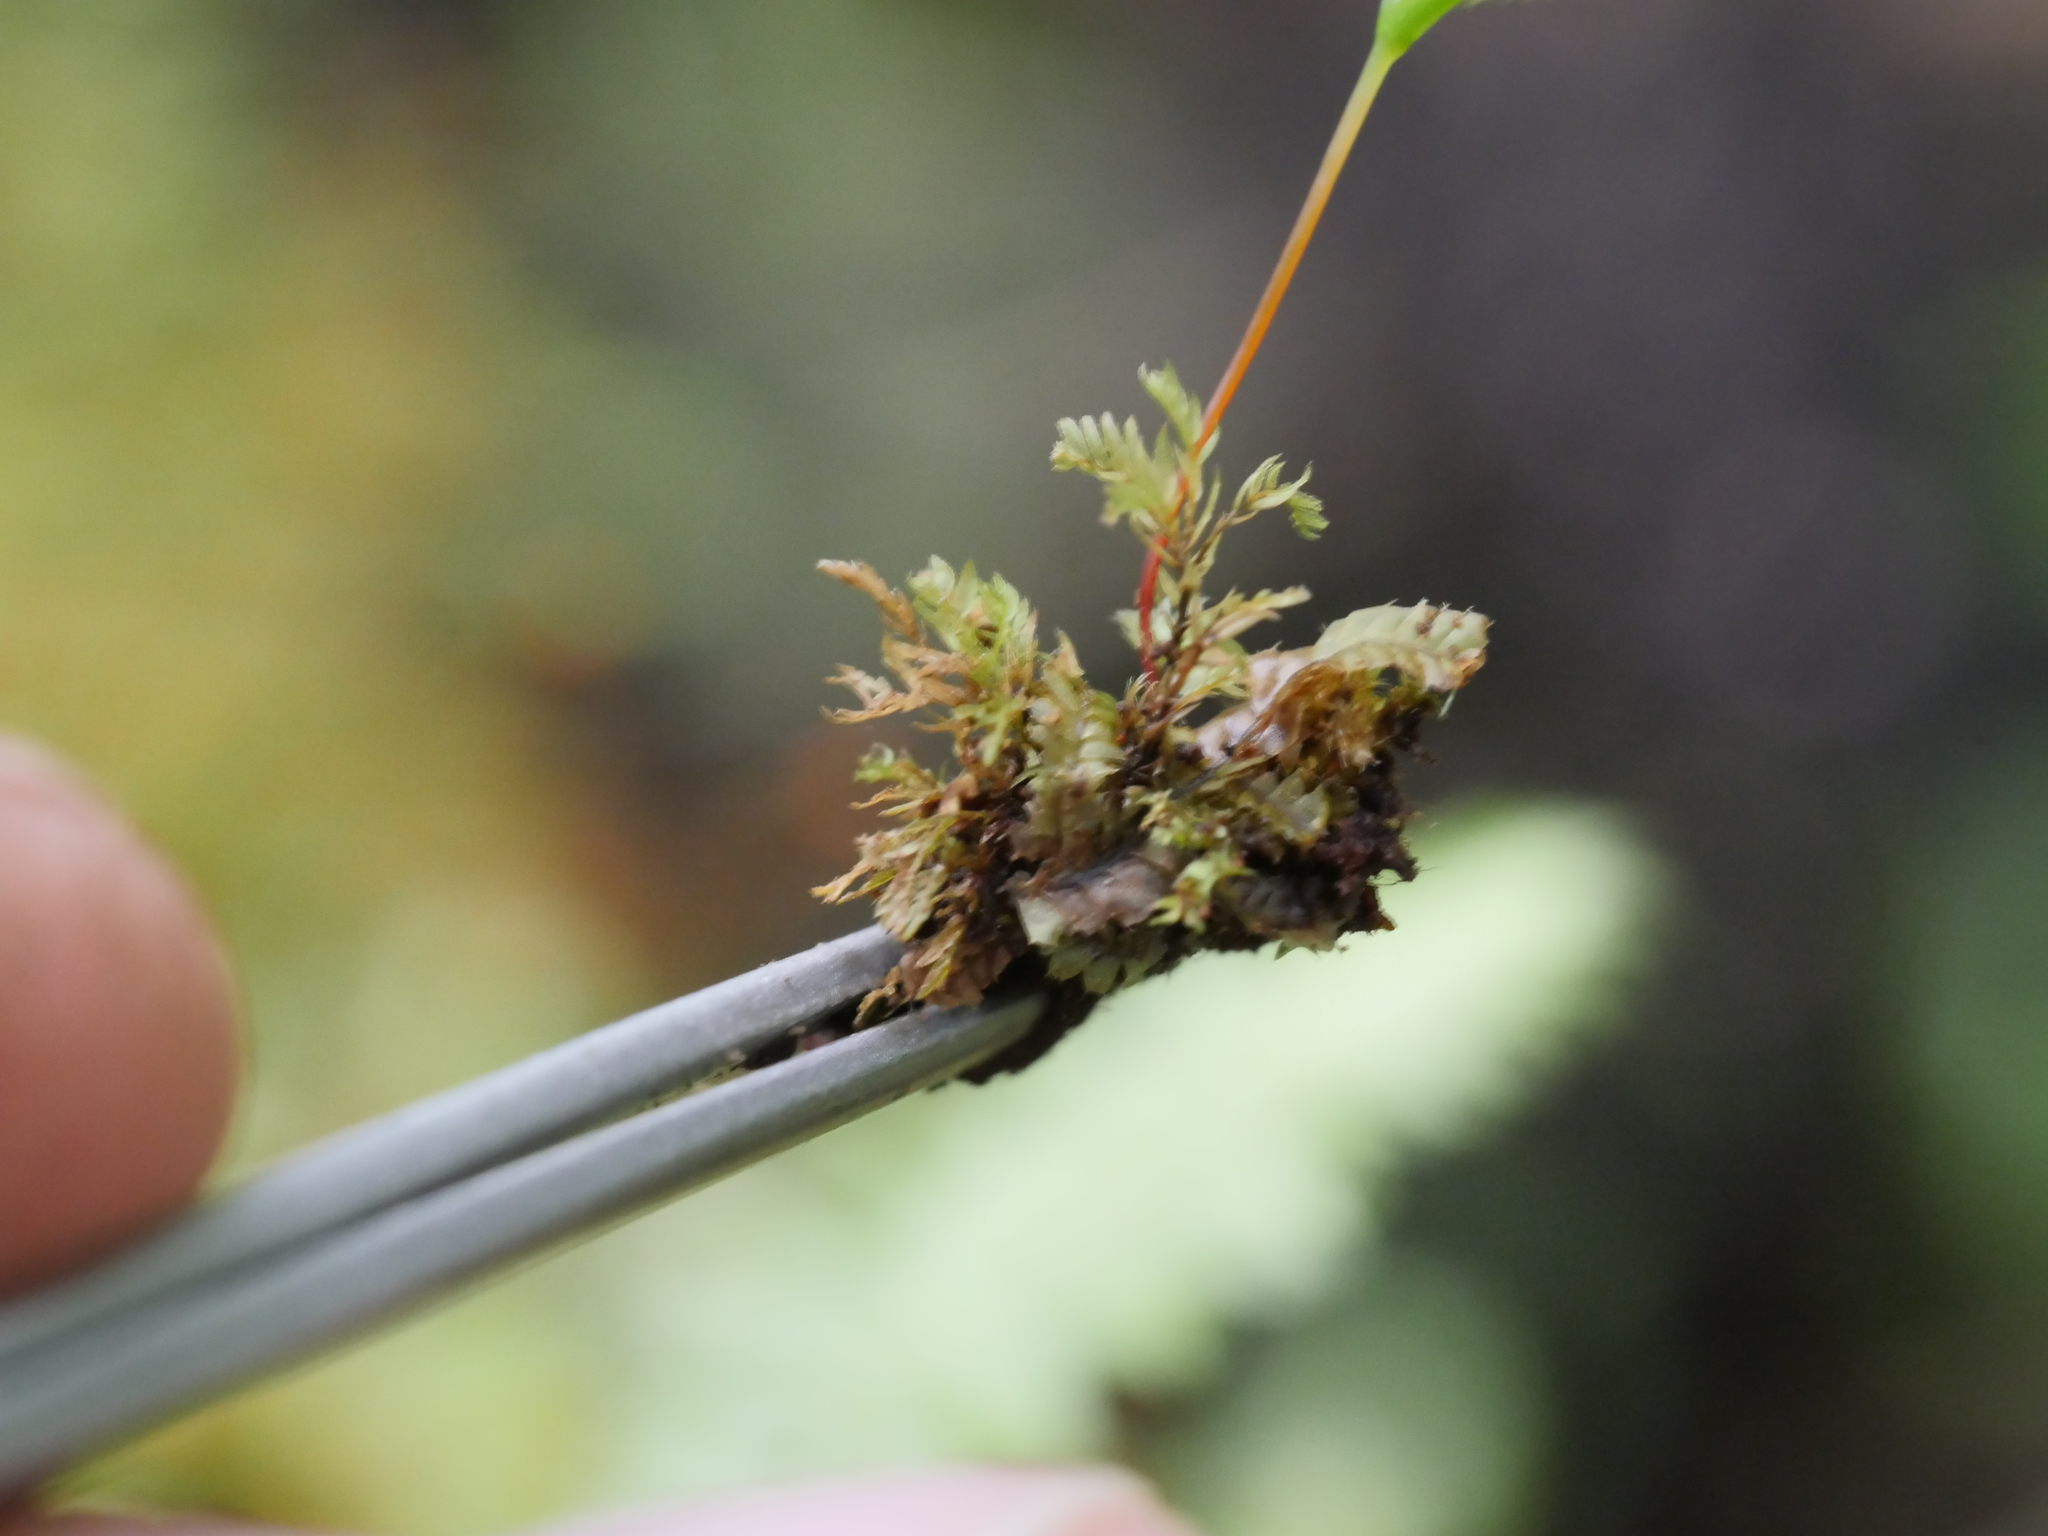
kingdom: Plantae
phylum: Bryophyta
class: Bryopsida
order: Hypnodendrales
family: Racopilaceae
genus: Racopilum
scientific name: Racopilum strumiferum
